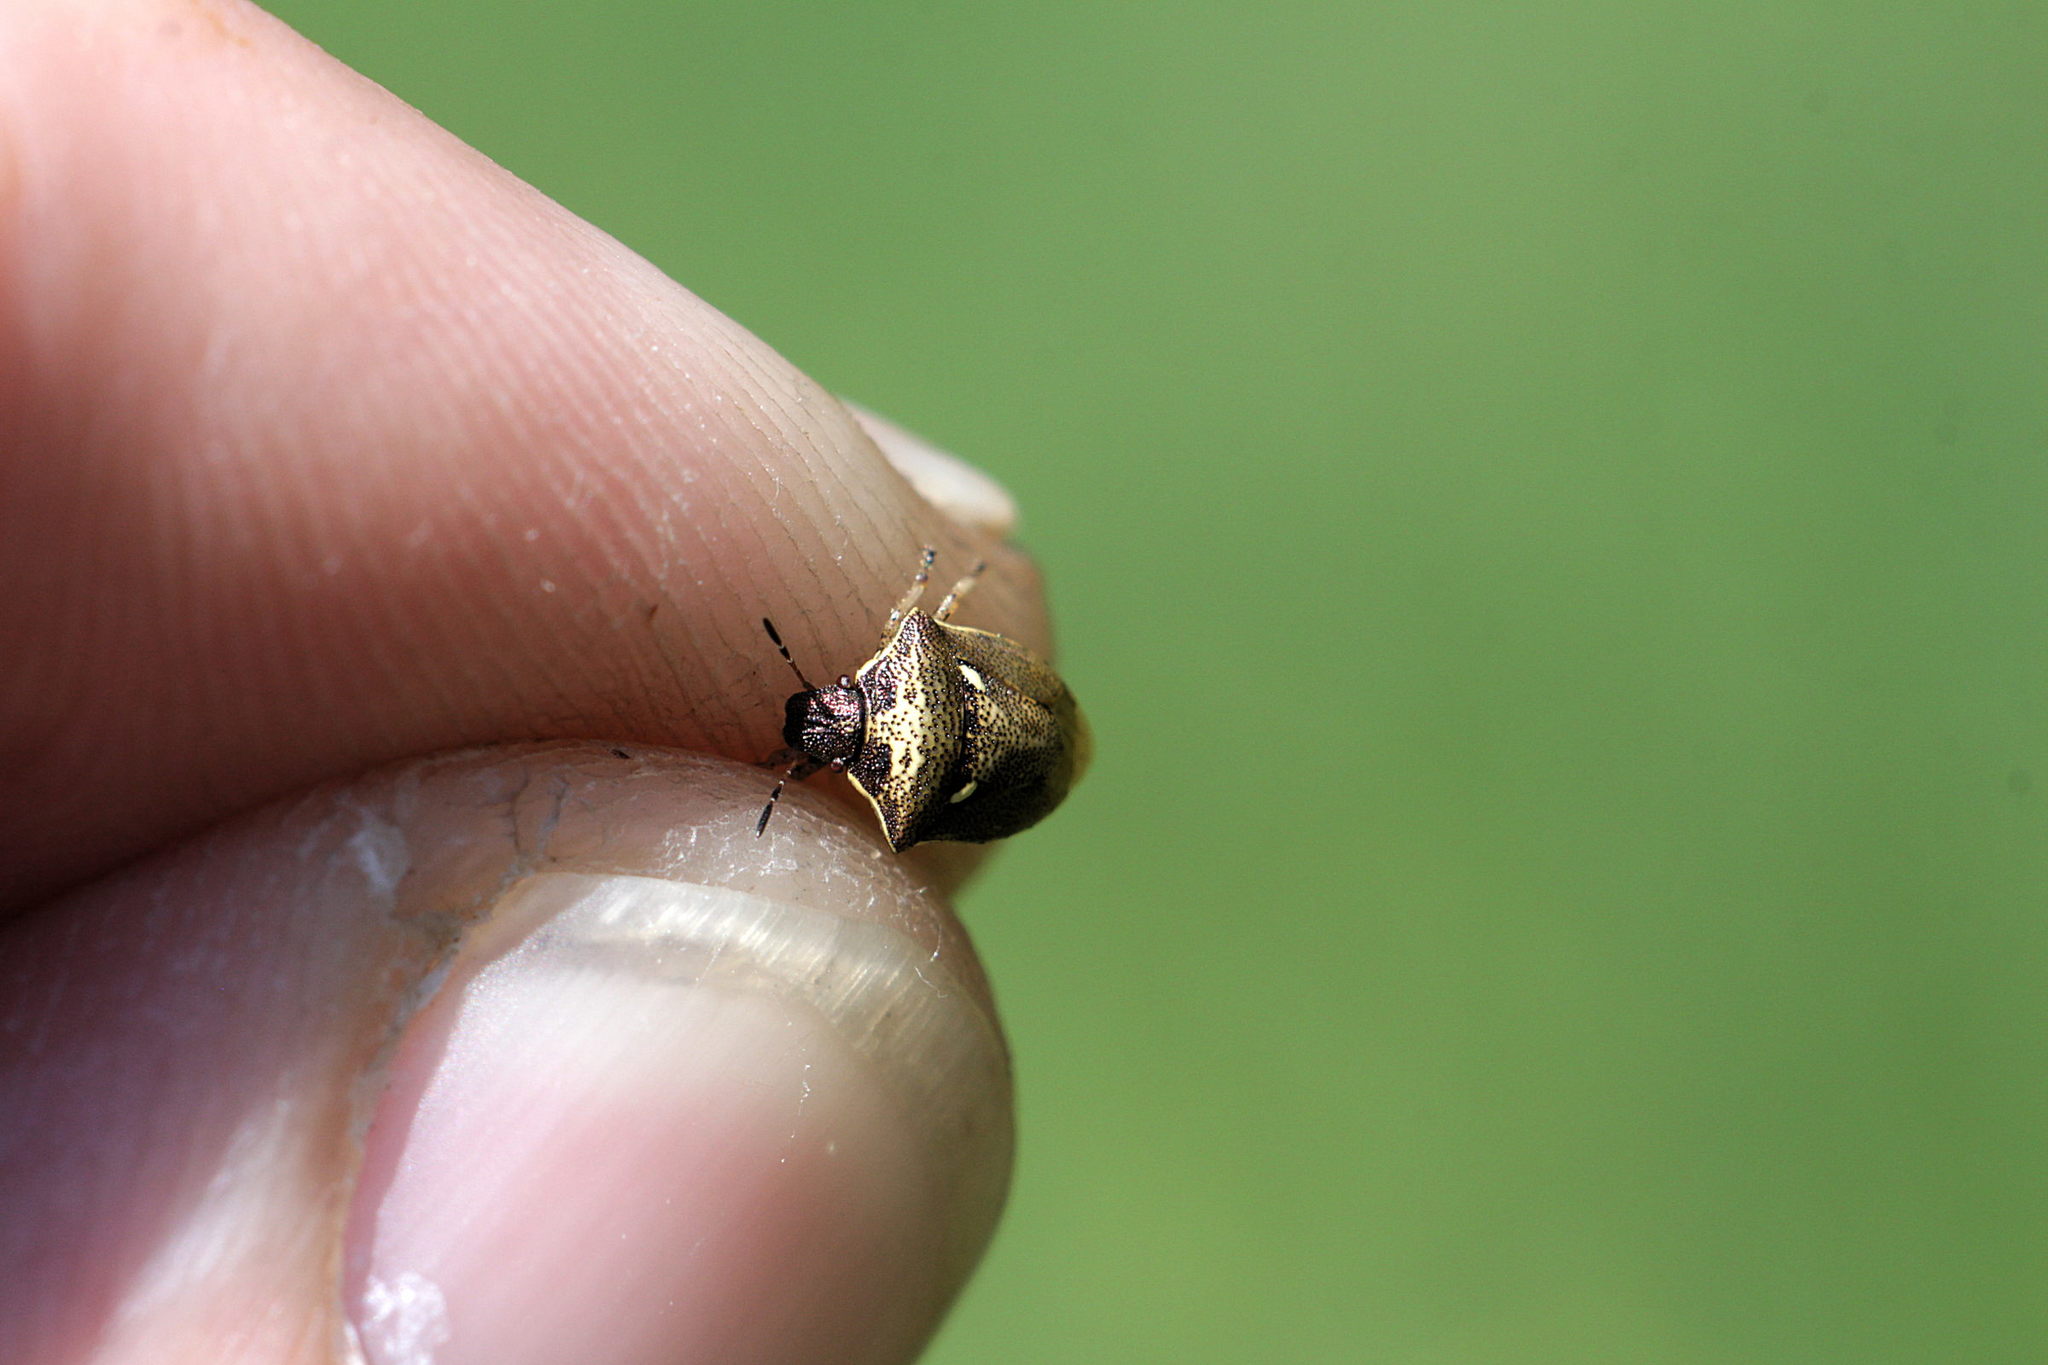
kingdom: Animalia
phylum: Arthropoda
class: Insecta
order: Hemiptera
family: Pentatomidae
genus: Eysarcoris
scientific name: Eysarcoris aeneus
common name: New forest shieldbug
